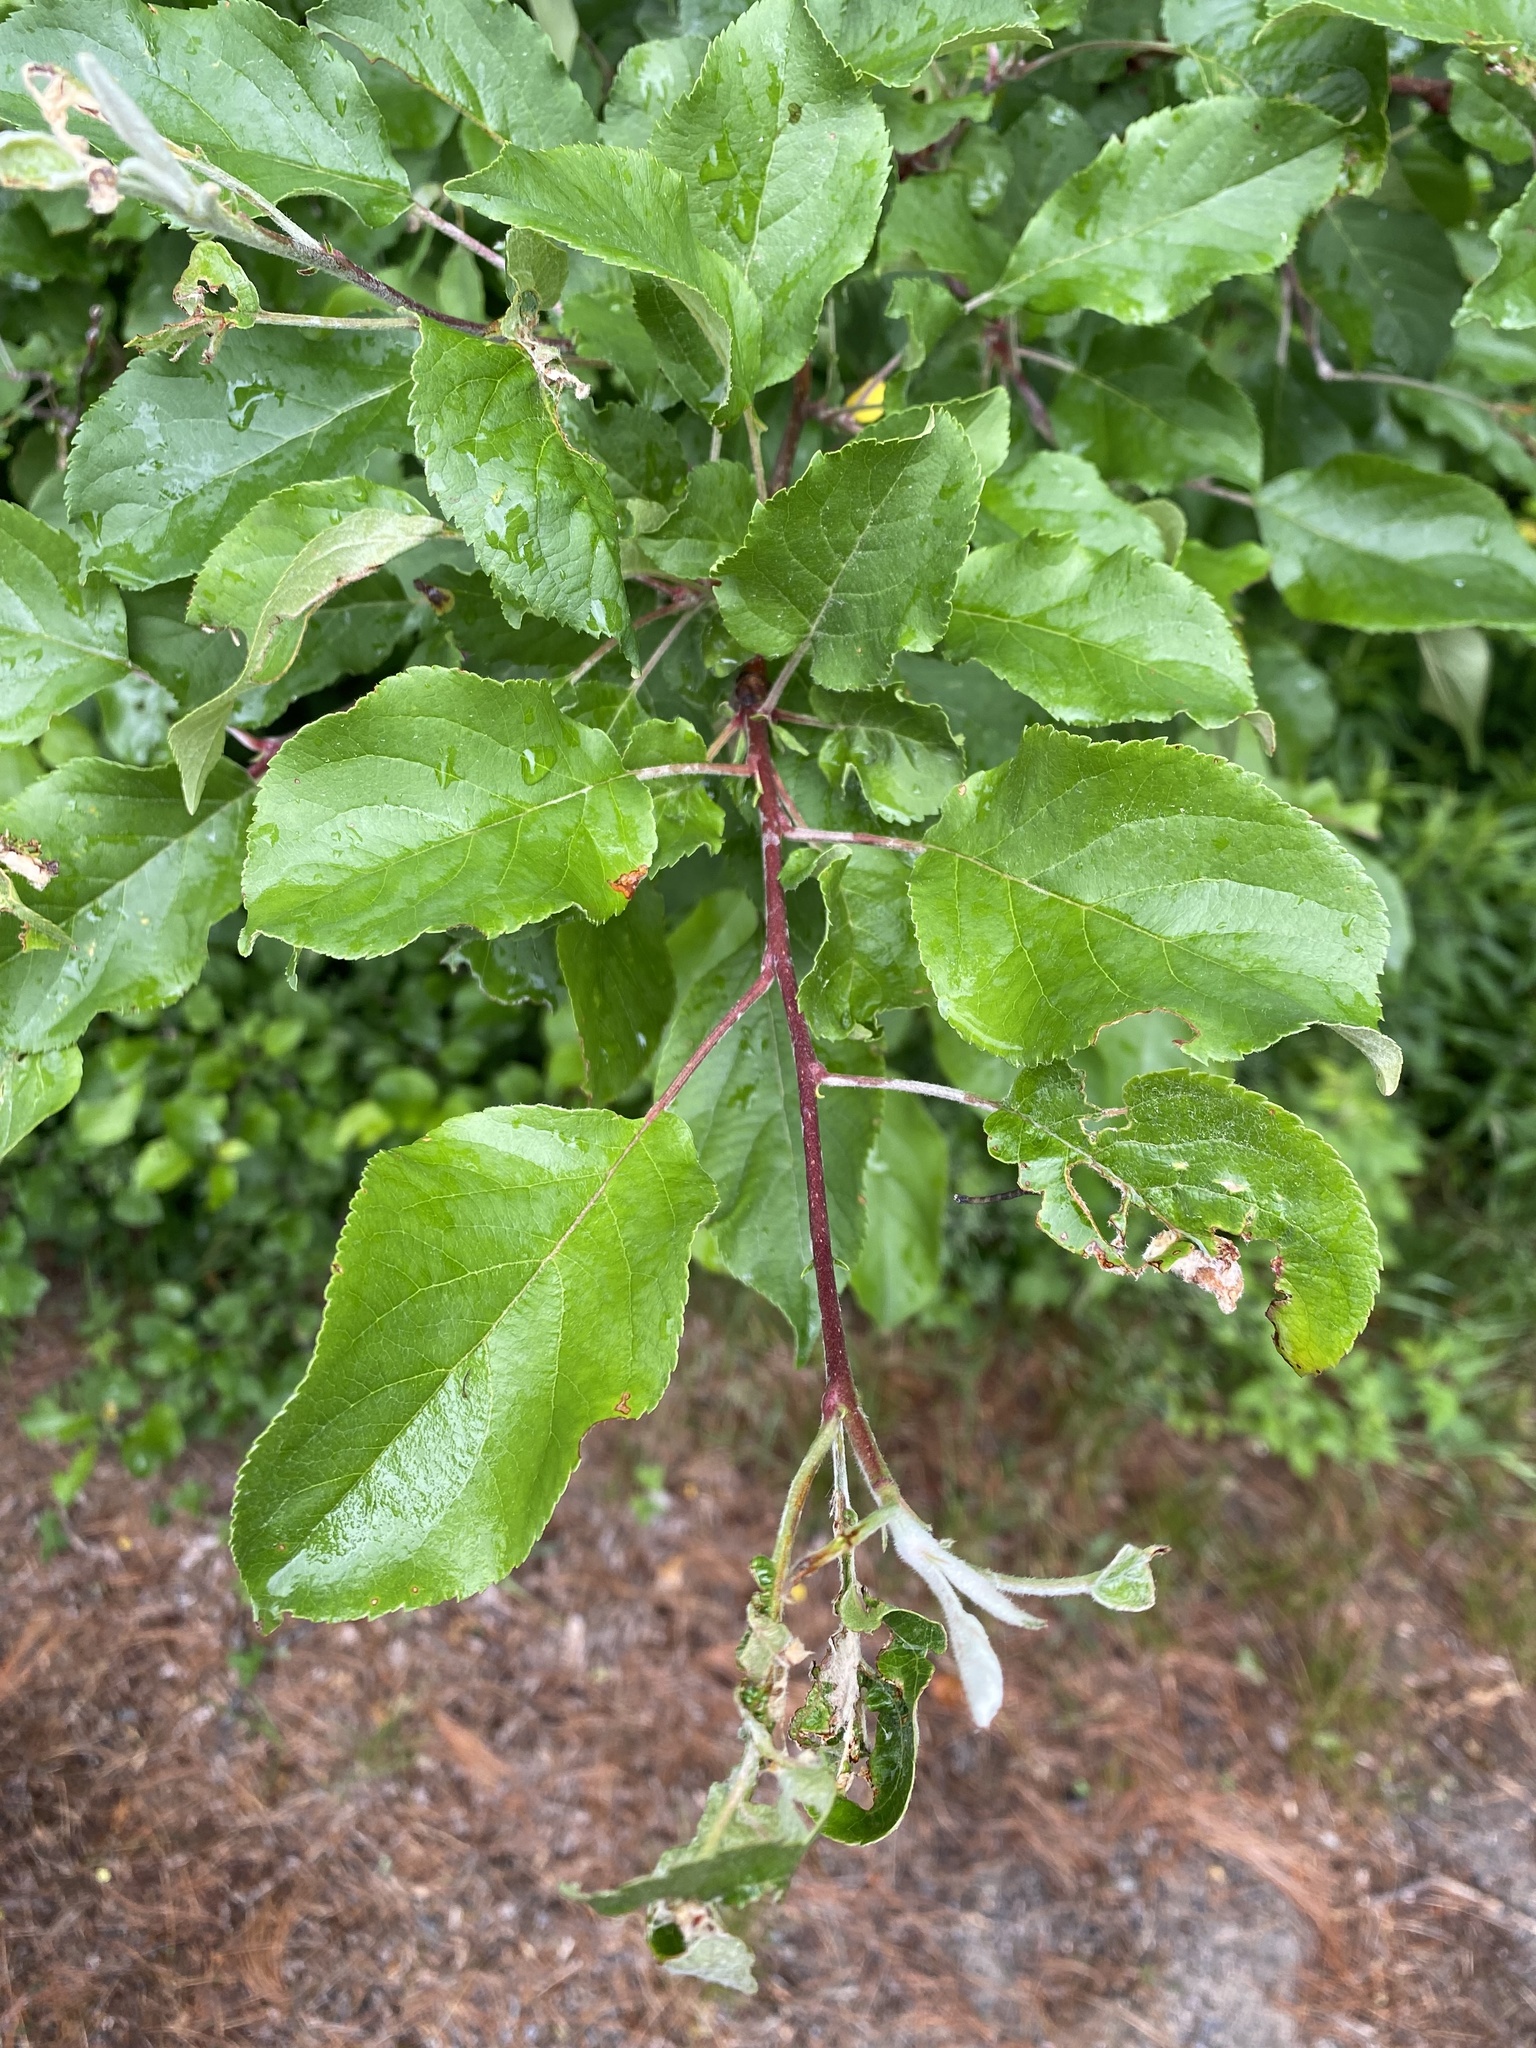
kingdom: Plantae
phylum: Tracheophyta
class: Magnoliopsida
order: Rosales
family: Rosaceae
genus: Malus
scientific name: Malus domestica
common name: Apple
